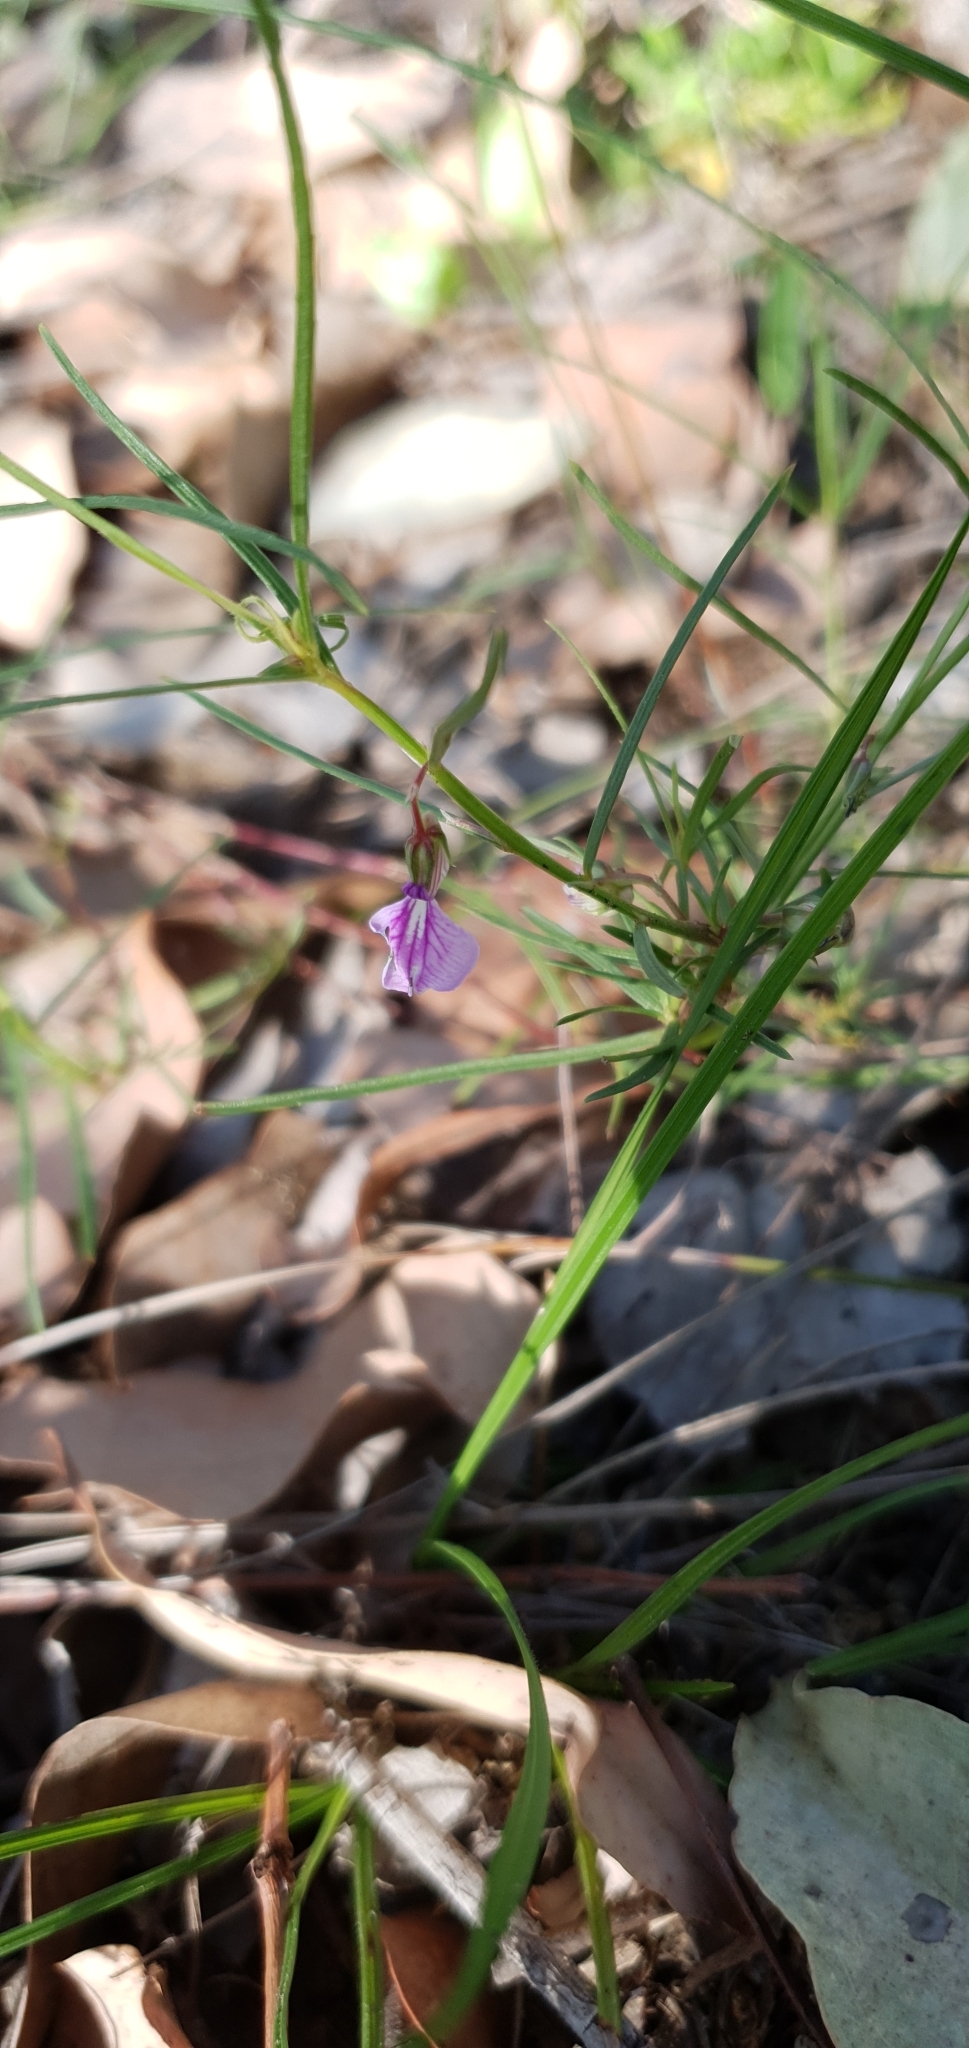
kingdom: Plantae
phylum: Tracheophyta
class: Magnoliopsida
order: Malpighiales
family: Violaceae
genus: Pigea
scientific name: Pigea enneasperma
